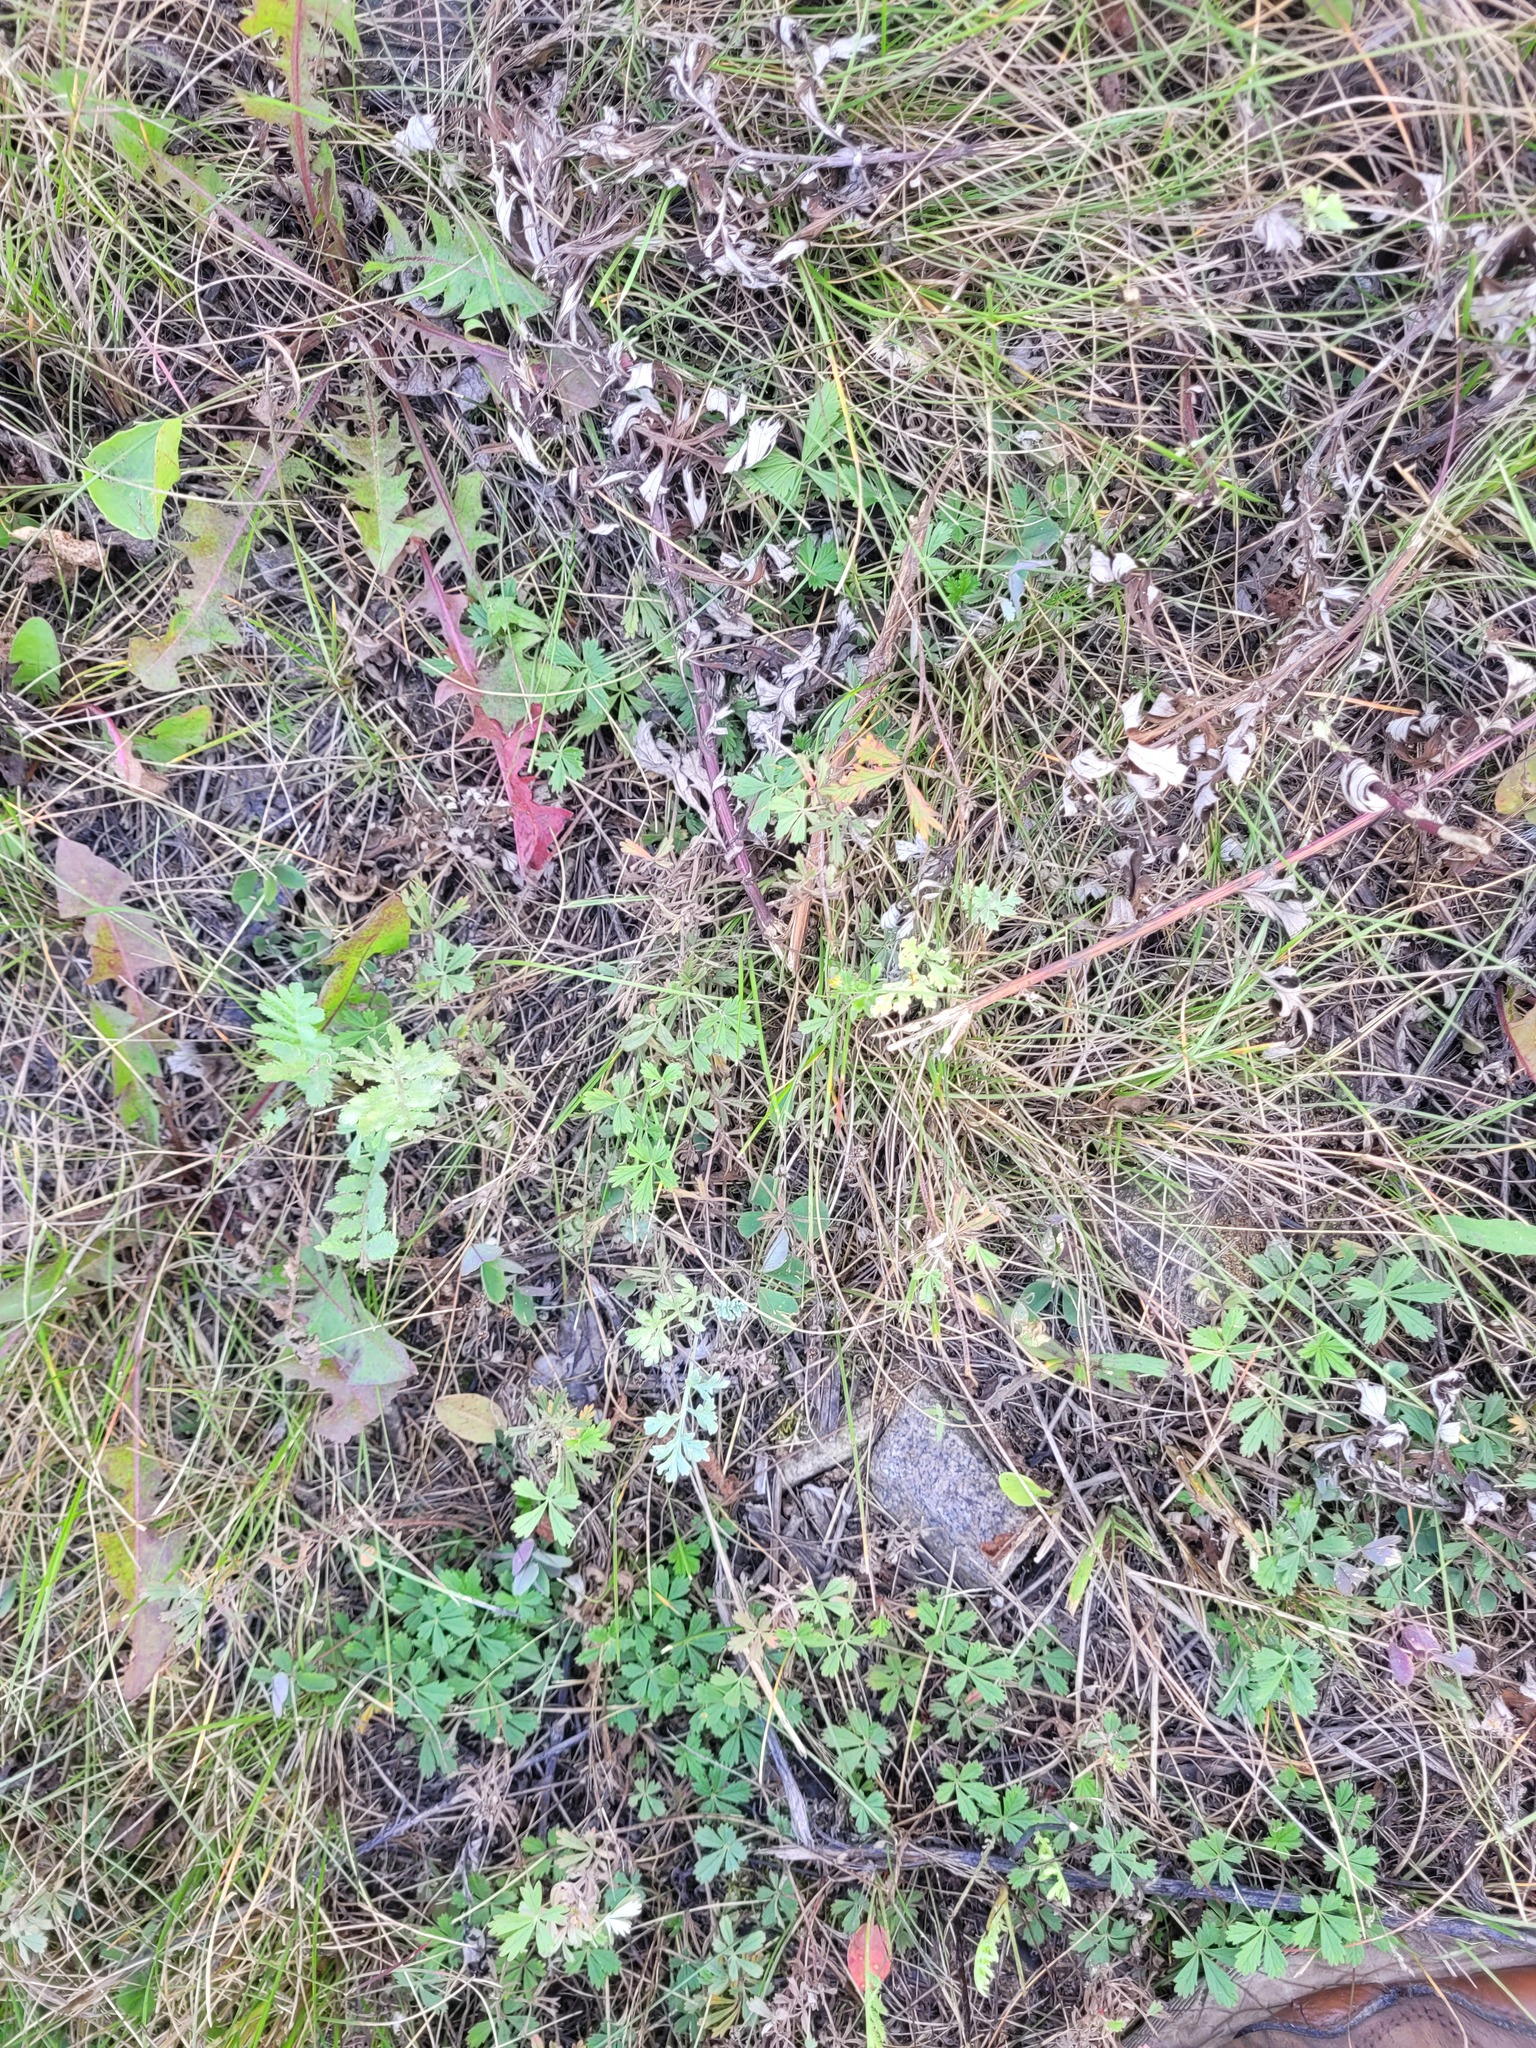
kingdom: Plantae
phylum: Tracheophyta
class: Magnoliopsida
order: Rosales
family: Rosaceae
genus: Potentilla
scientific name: Potentilla argentea
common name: Hoary cinquefoil
